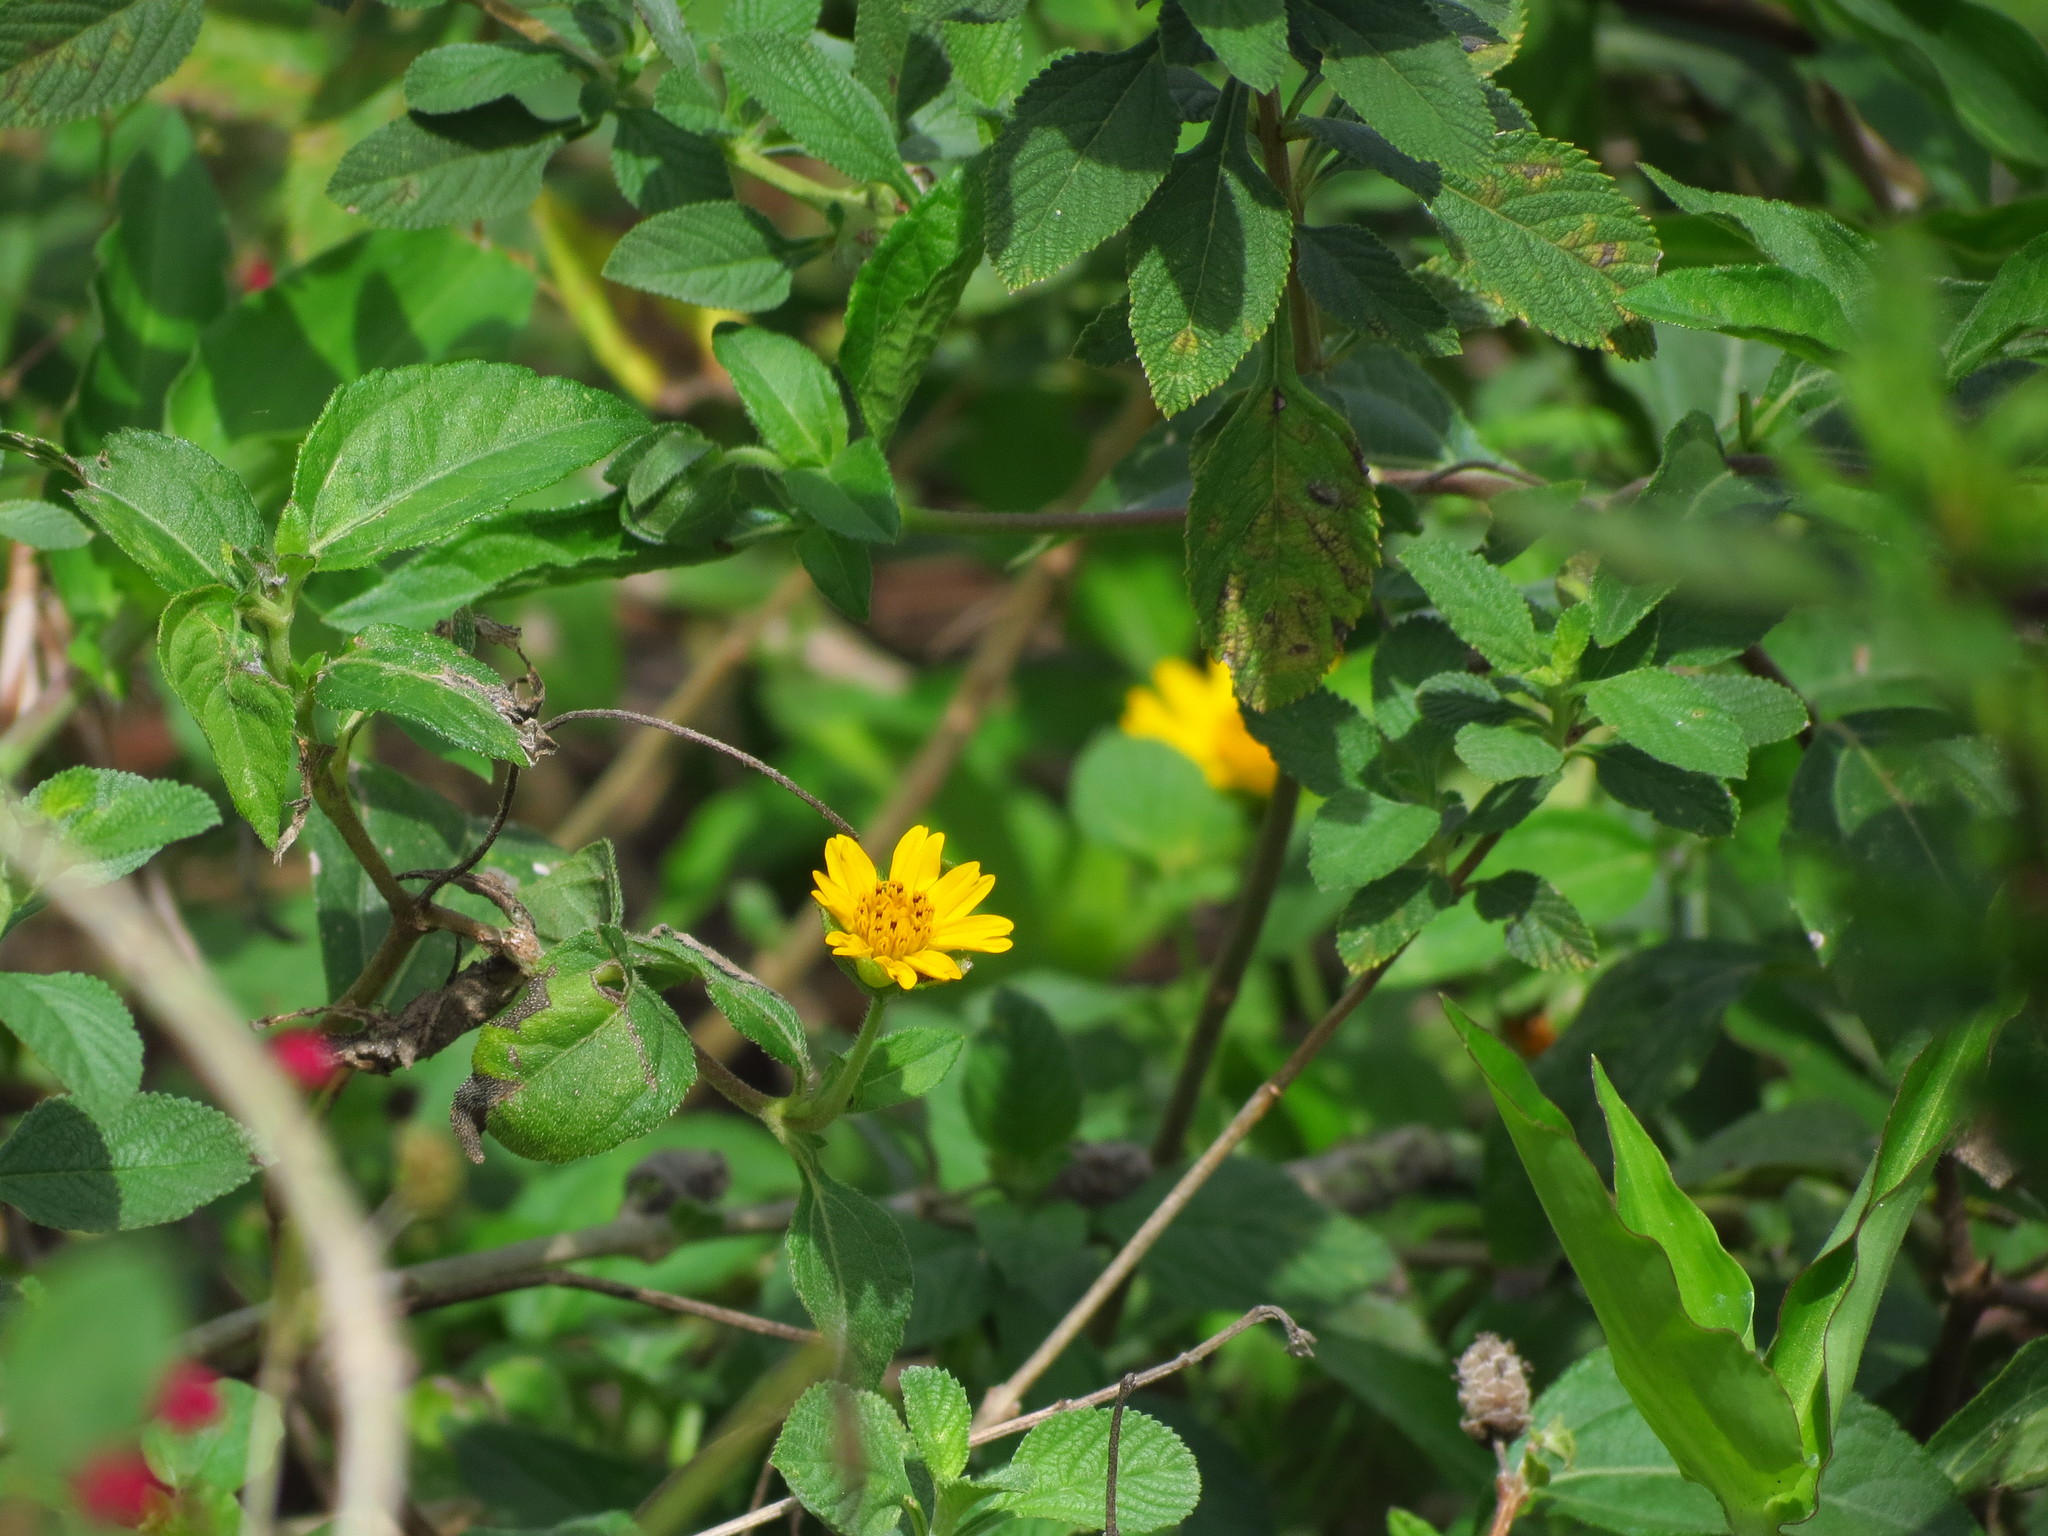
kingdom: Plantae
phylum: Tracheophyta
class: Magnoliopsida
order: Asterales
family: Asteraceae
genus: Sphagneticola
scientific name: Sphagneticola trilobata
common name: Bay biscayne creeping-oxeye
